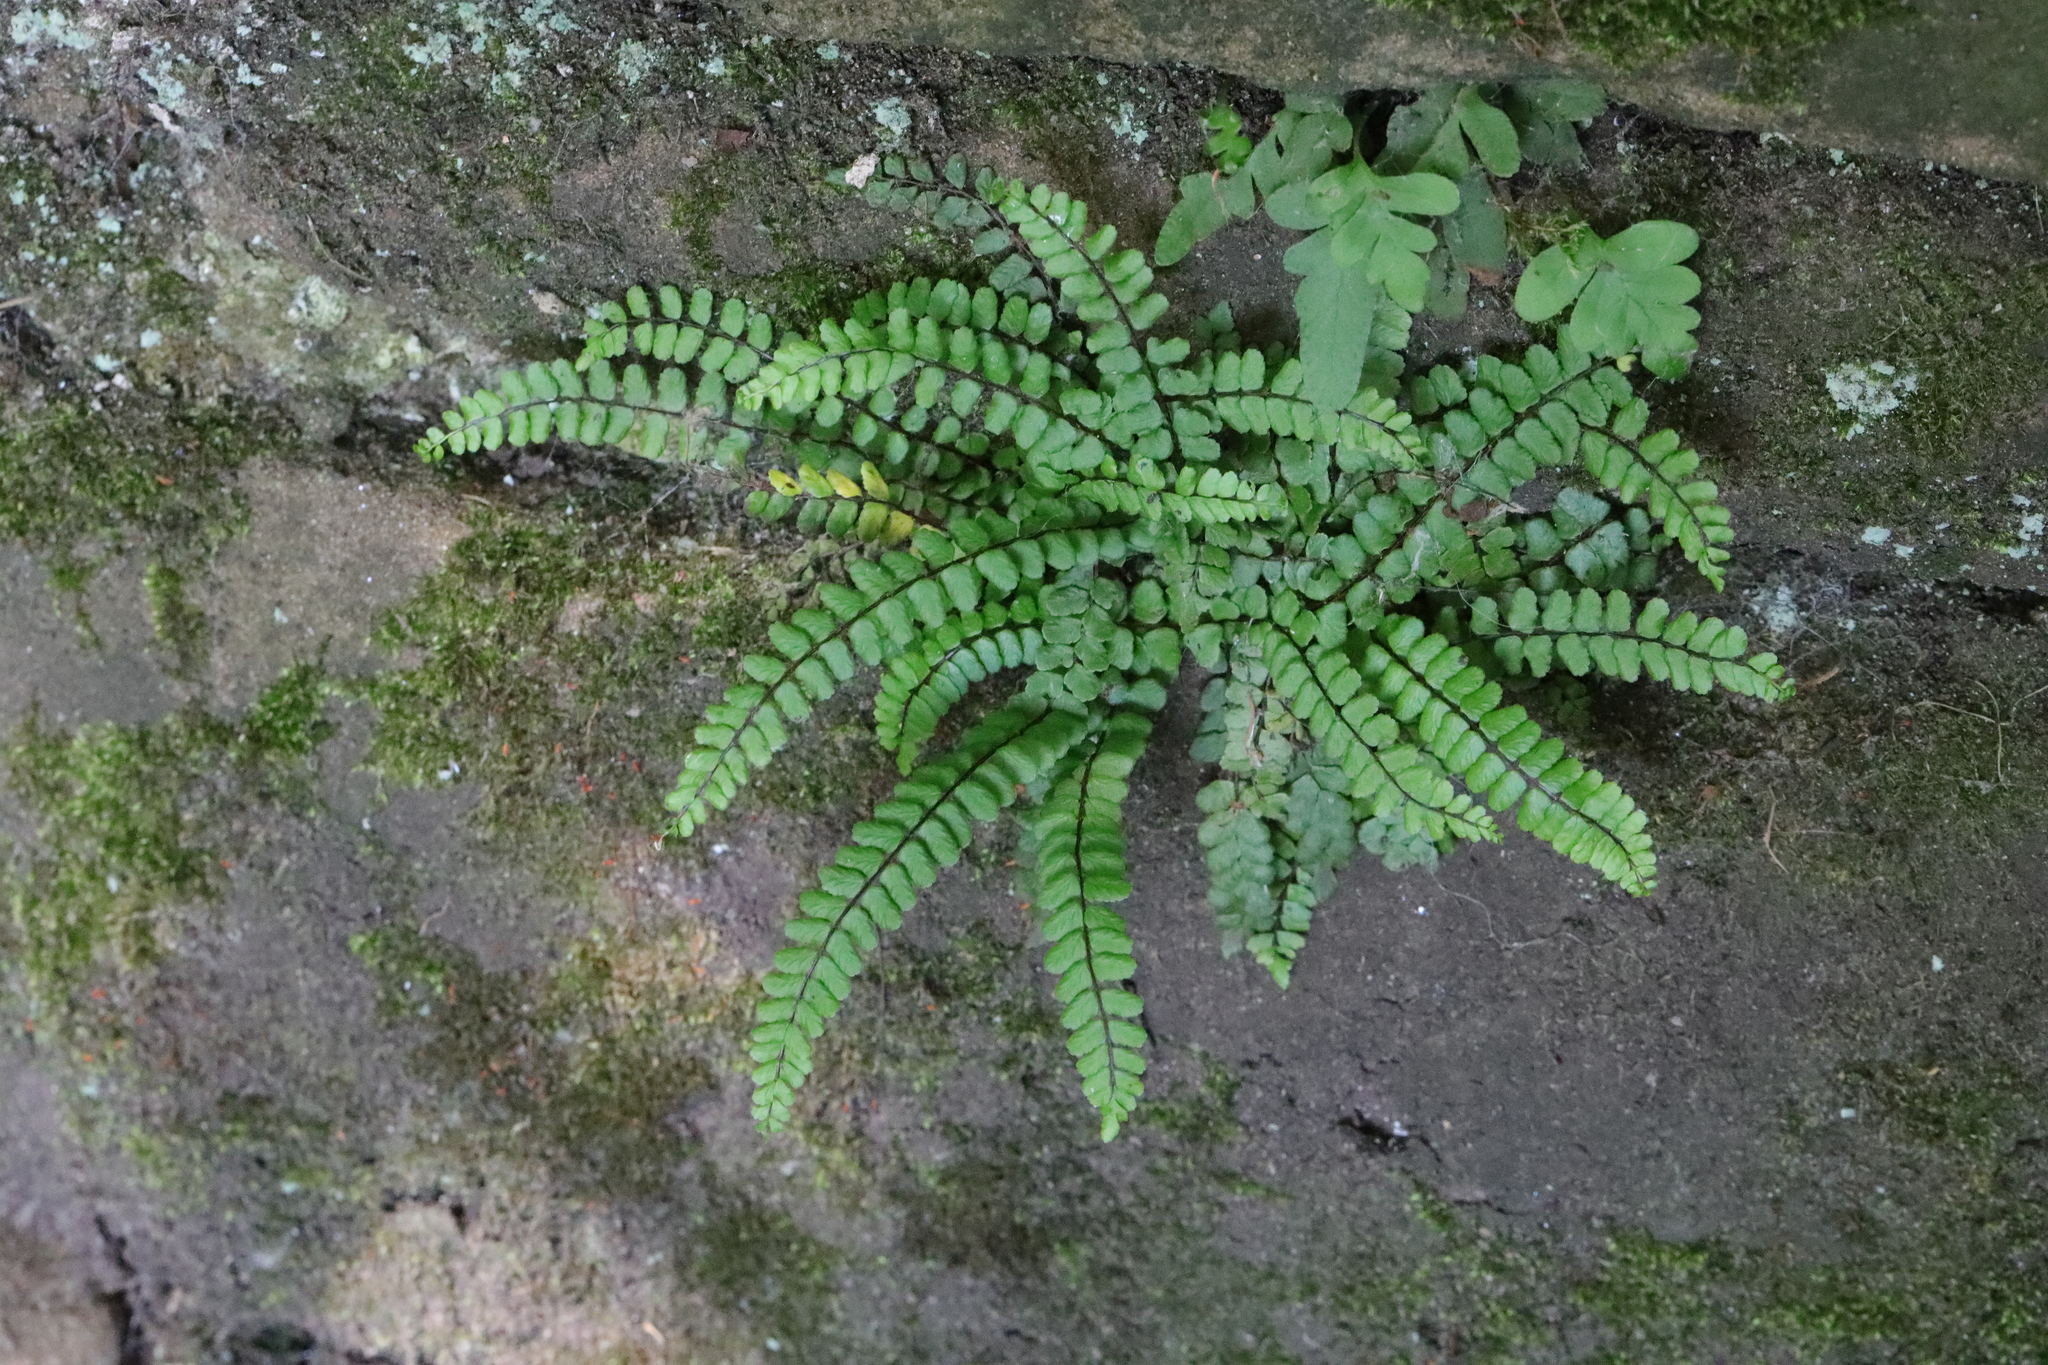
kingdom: Plantae
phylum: Tracheophyta
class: Polypodiopsida
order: Polypodiales
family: Aspleniaceae
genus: Asplenium
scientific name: Asplenium trichomanes
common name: Maidenhair spleenwort
